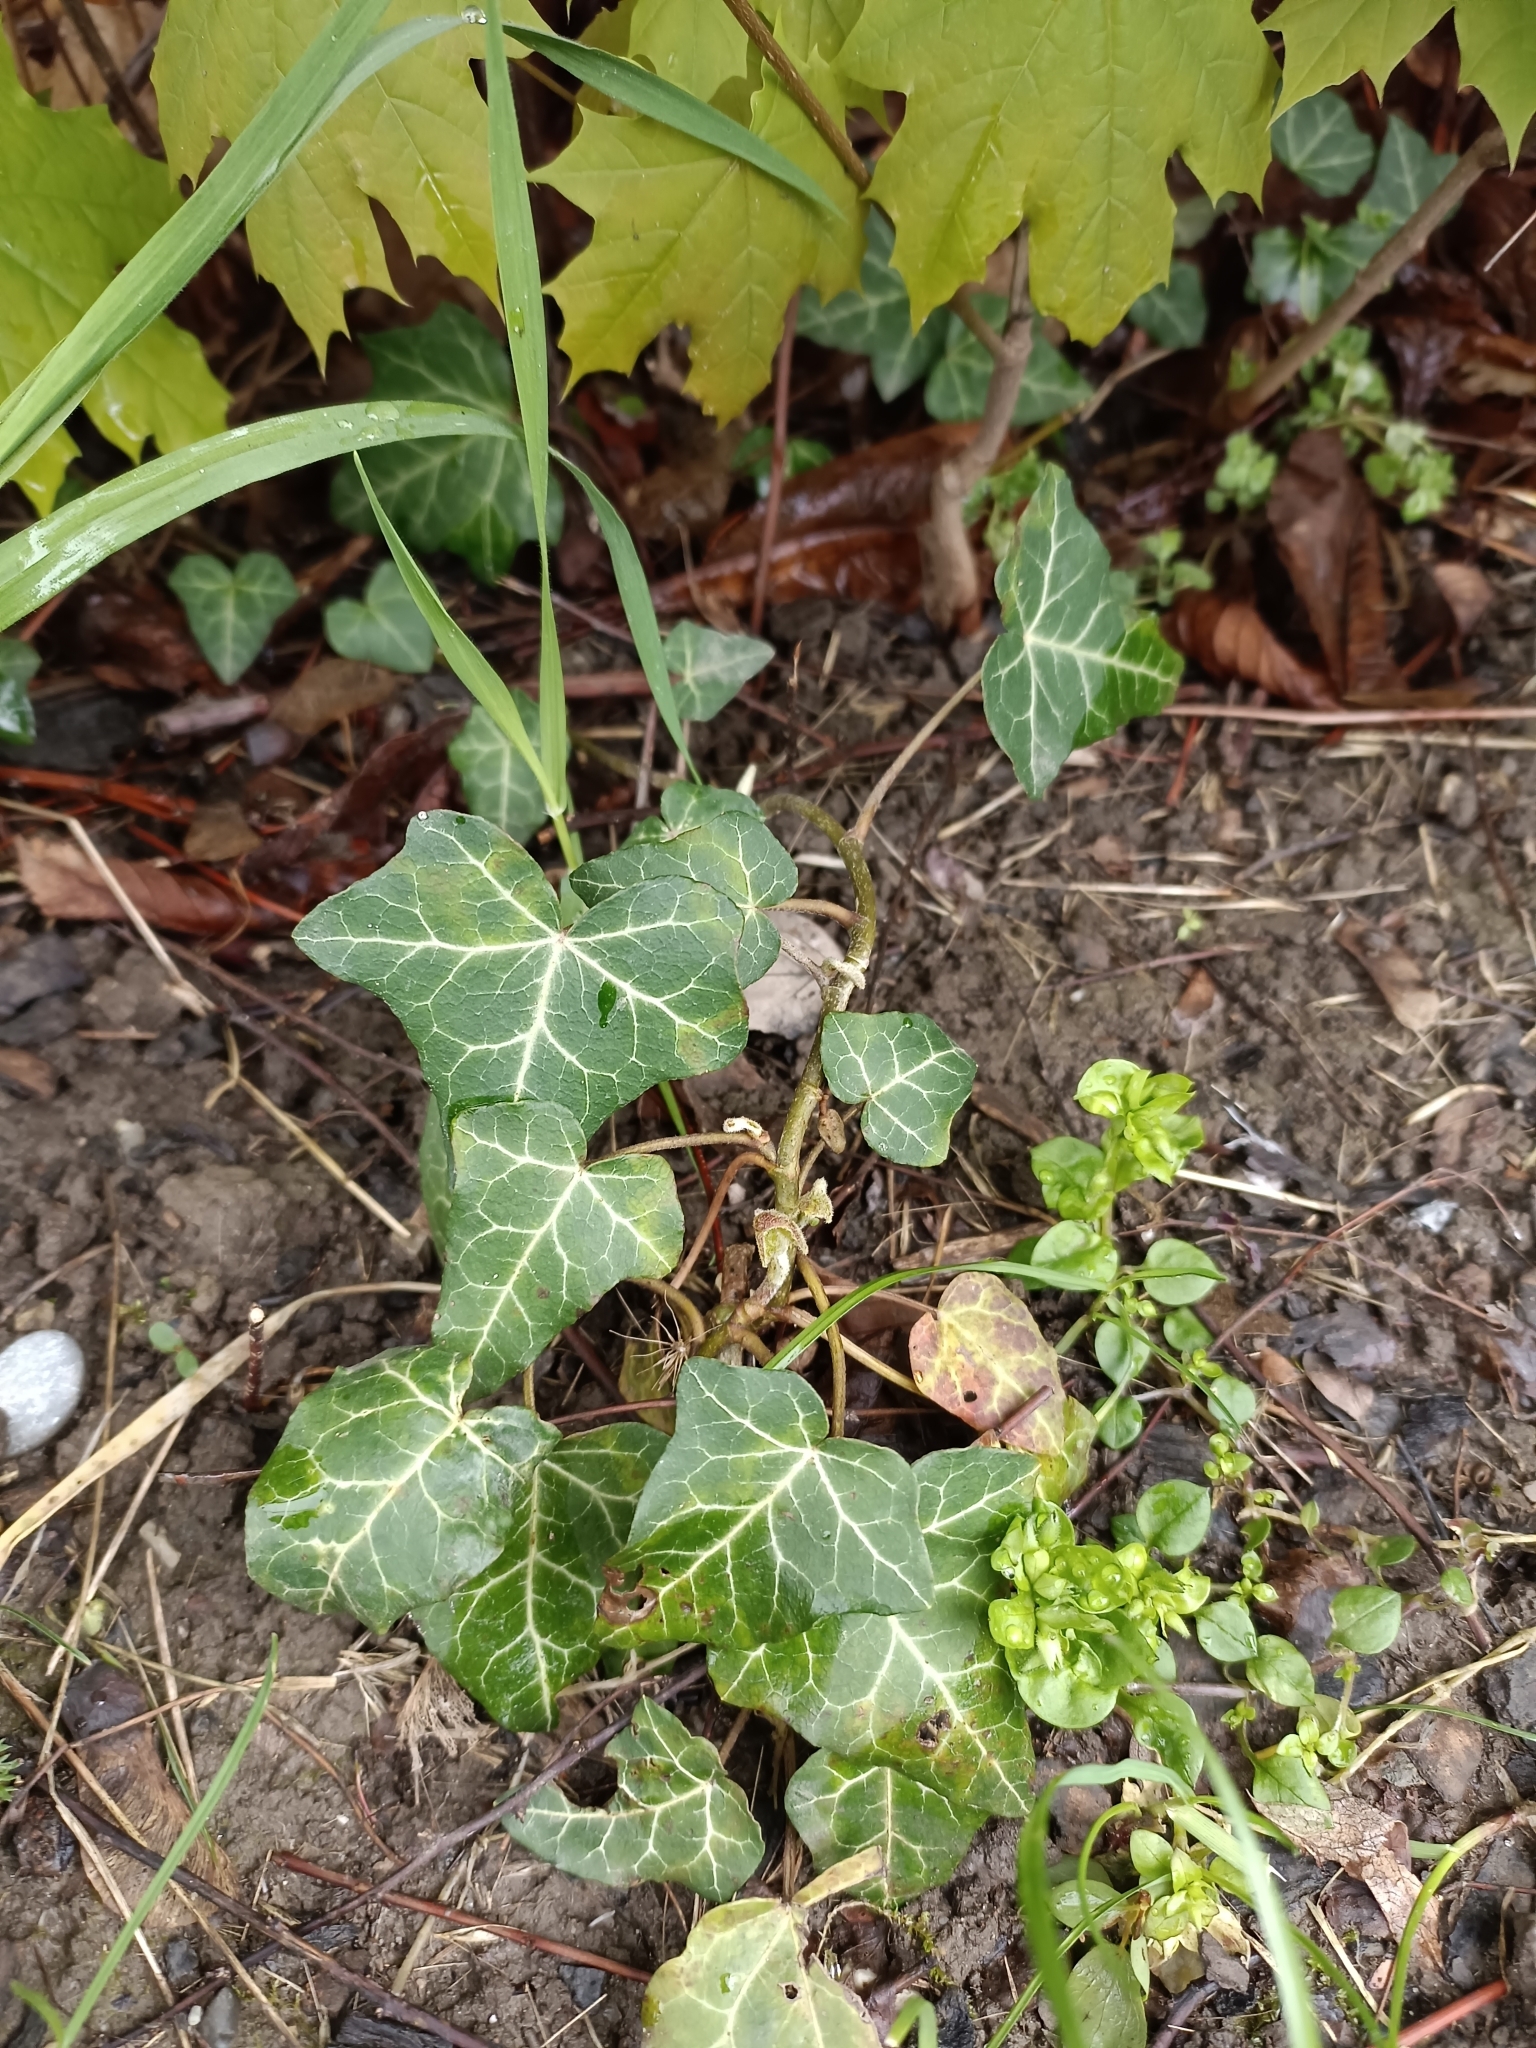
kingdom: Plantae
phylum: Tracheophyta
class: Magnoliopsida
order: Apiales
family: Araliaceae
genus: Hedera
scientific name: Hedera helix
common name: Ivy
